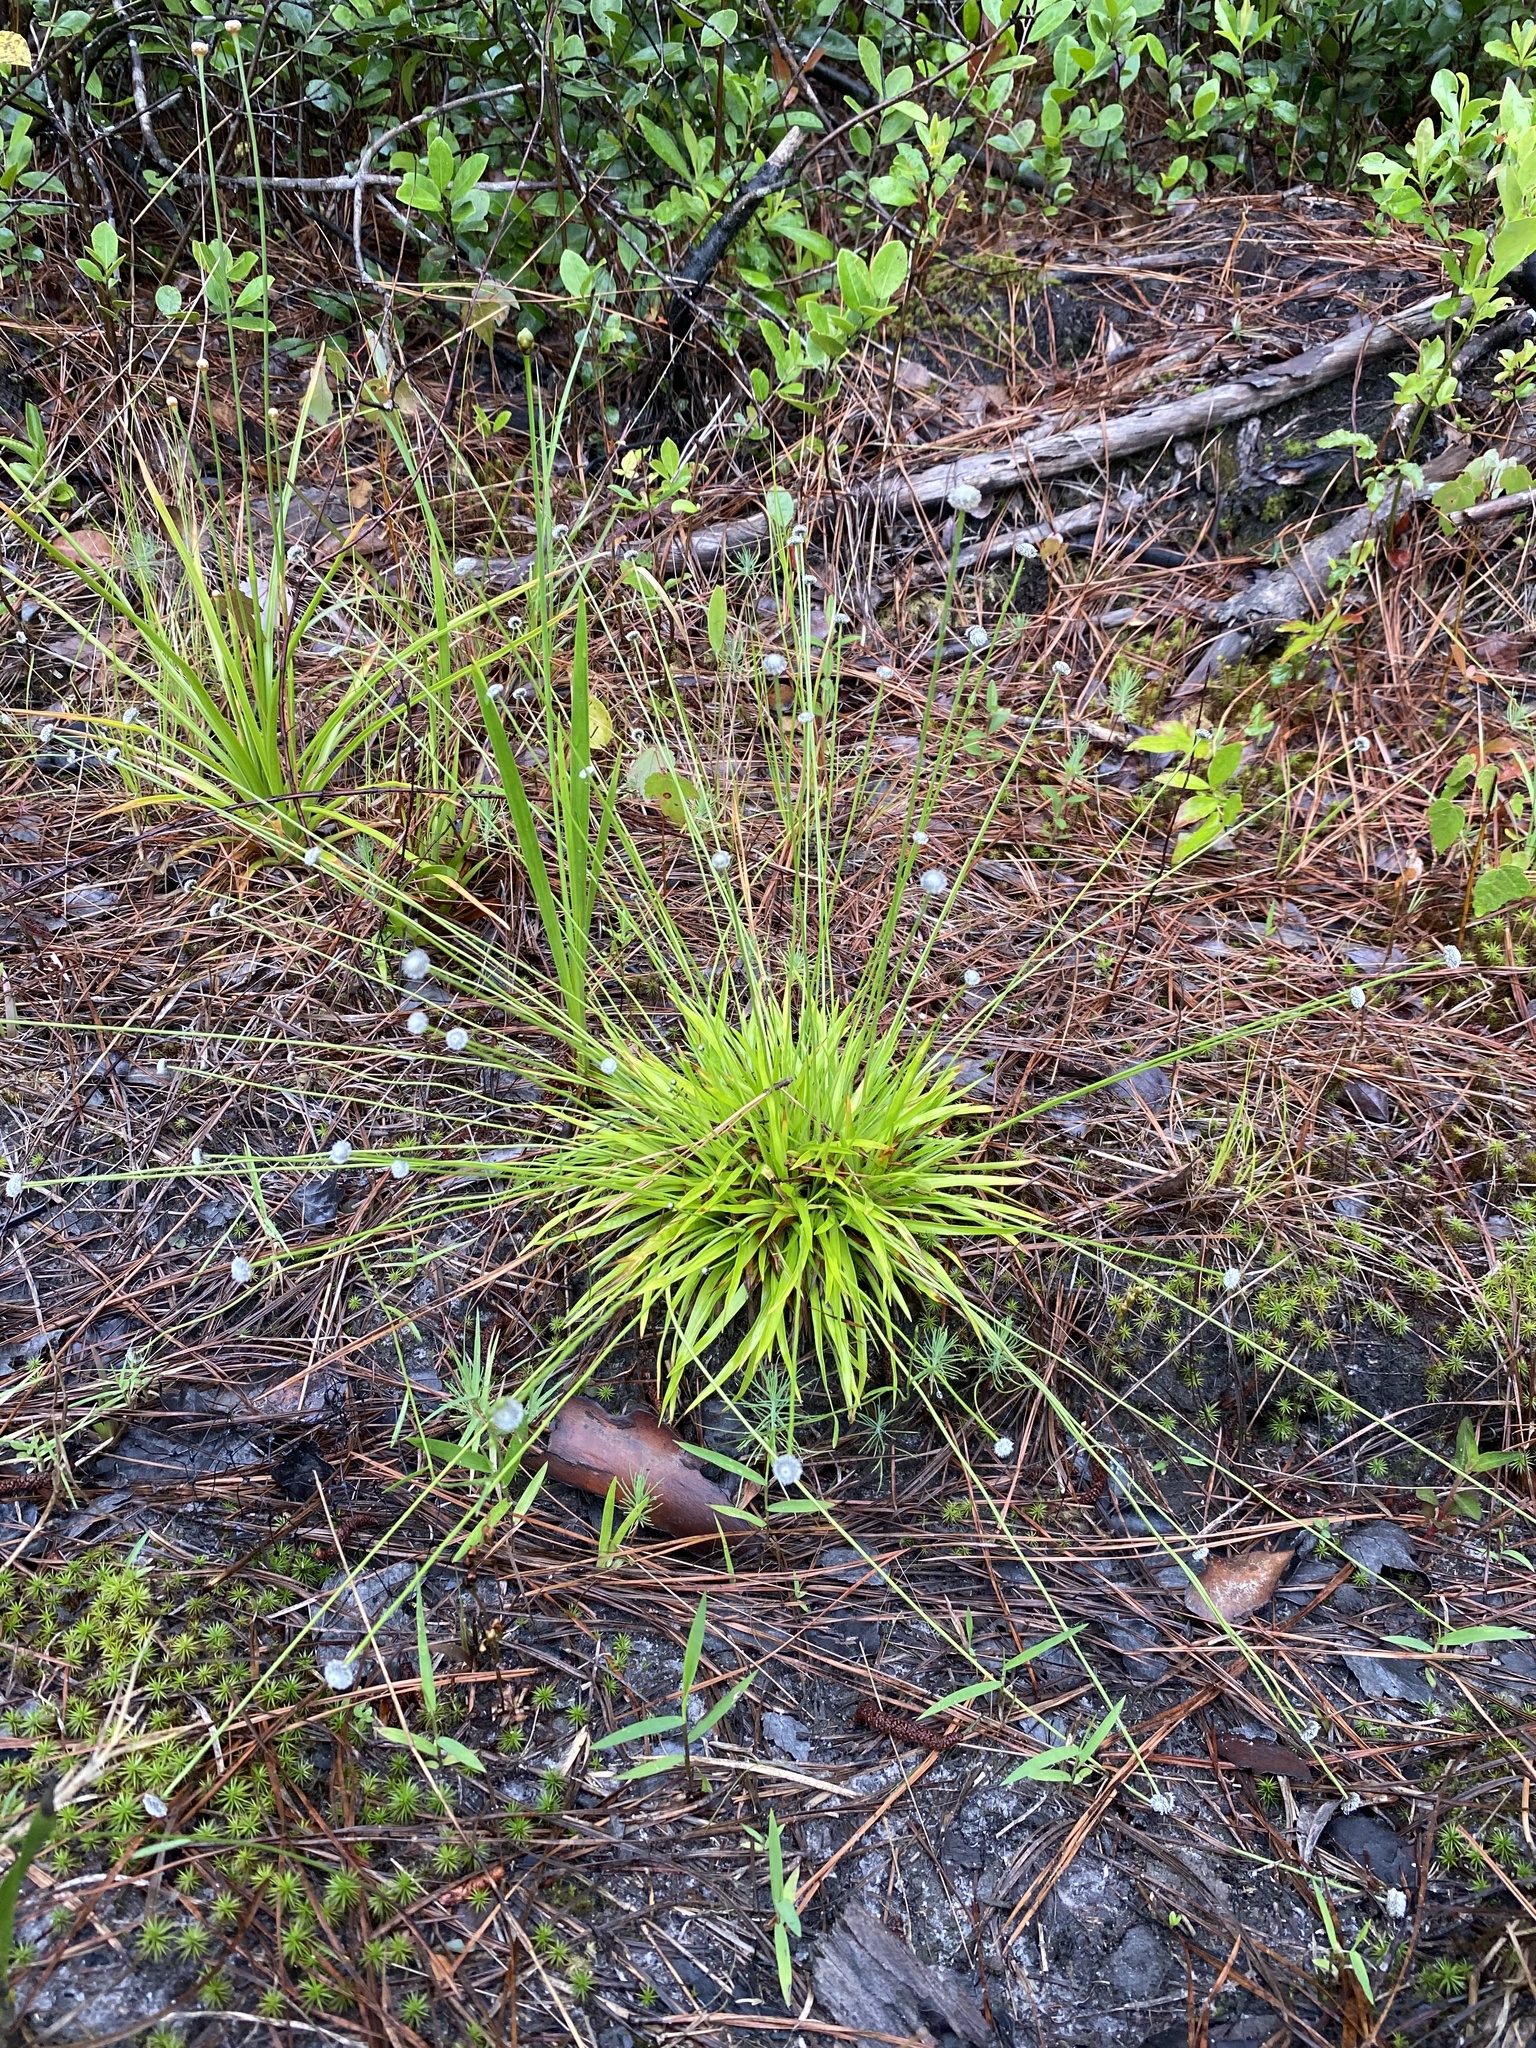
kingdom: Plantae
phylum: Tracheophyta
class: Liliopsida
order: Poales
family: Eriocaulaceae
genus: Paepalanthus
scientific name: Paepalanthus anceps
